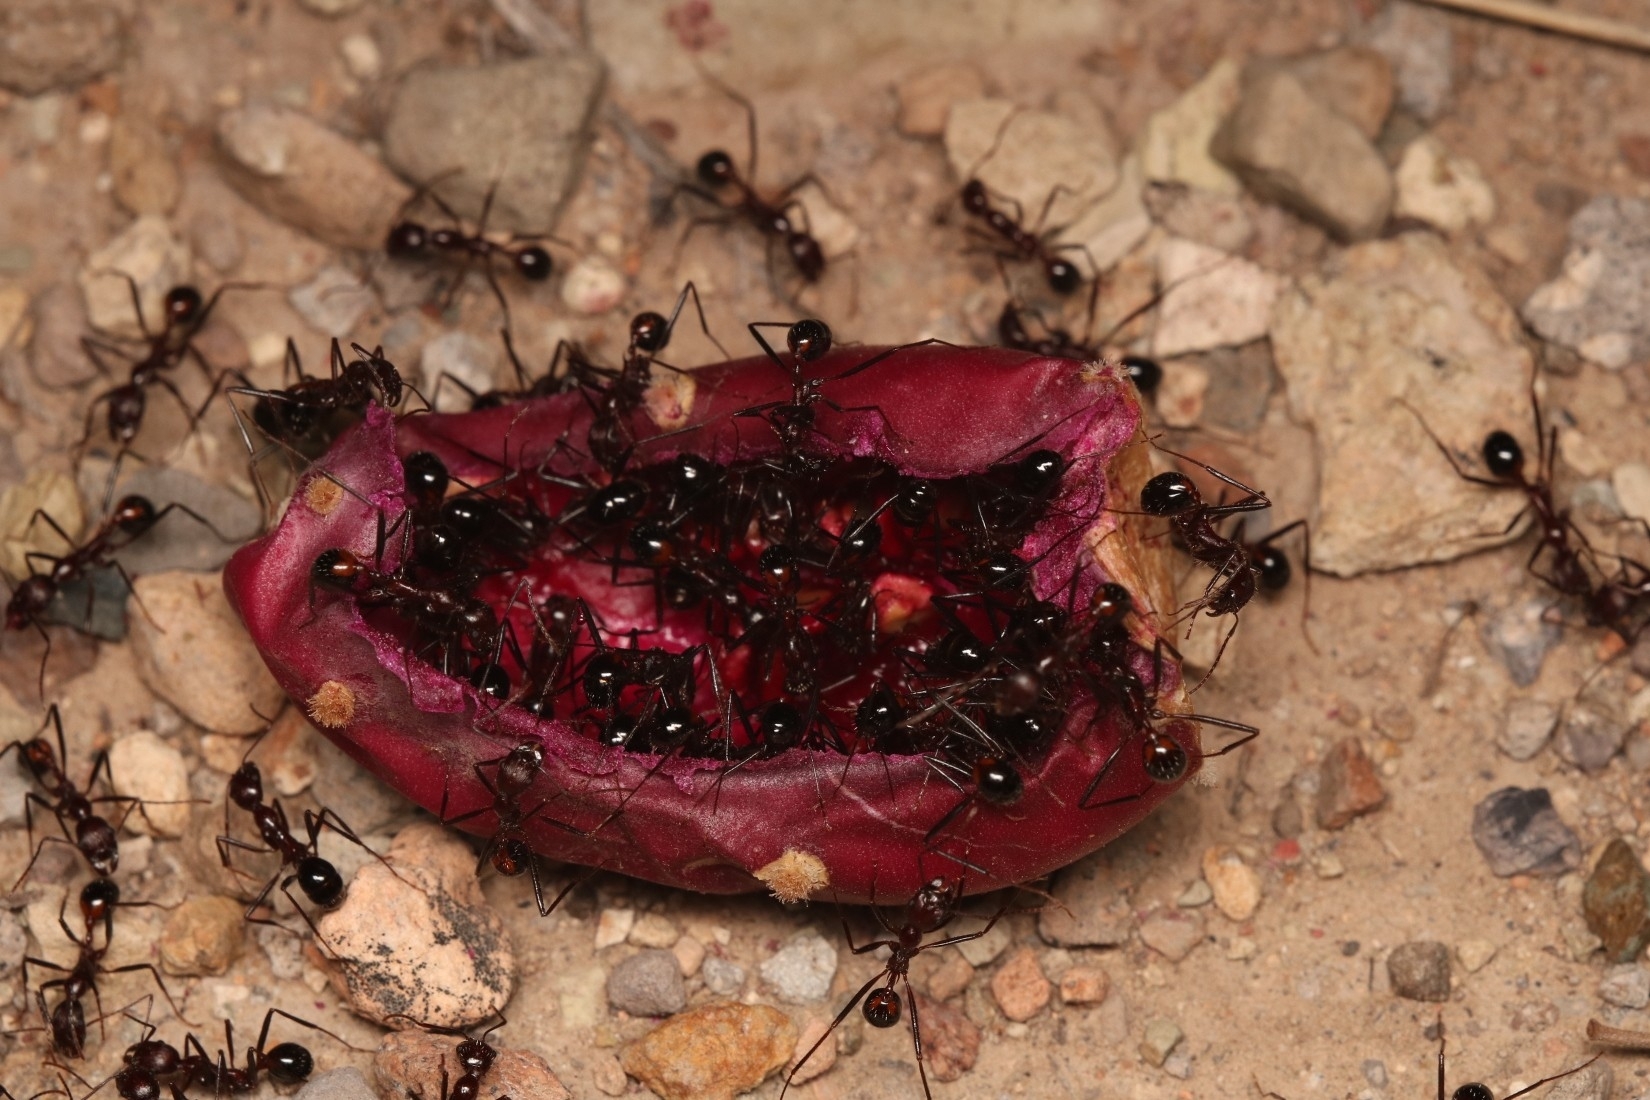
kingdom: Animalia
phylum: Arthropoda
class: Insecta
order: Hymenoptera
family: Formicidae
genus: Novomessor
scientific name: Novomessor cockerelli
